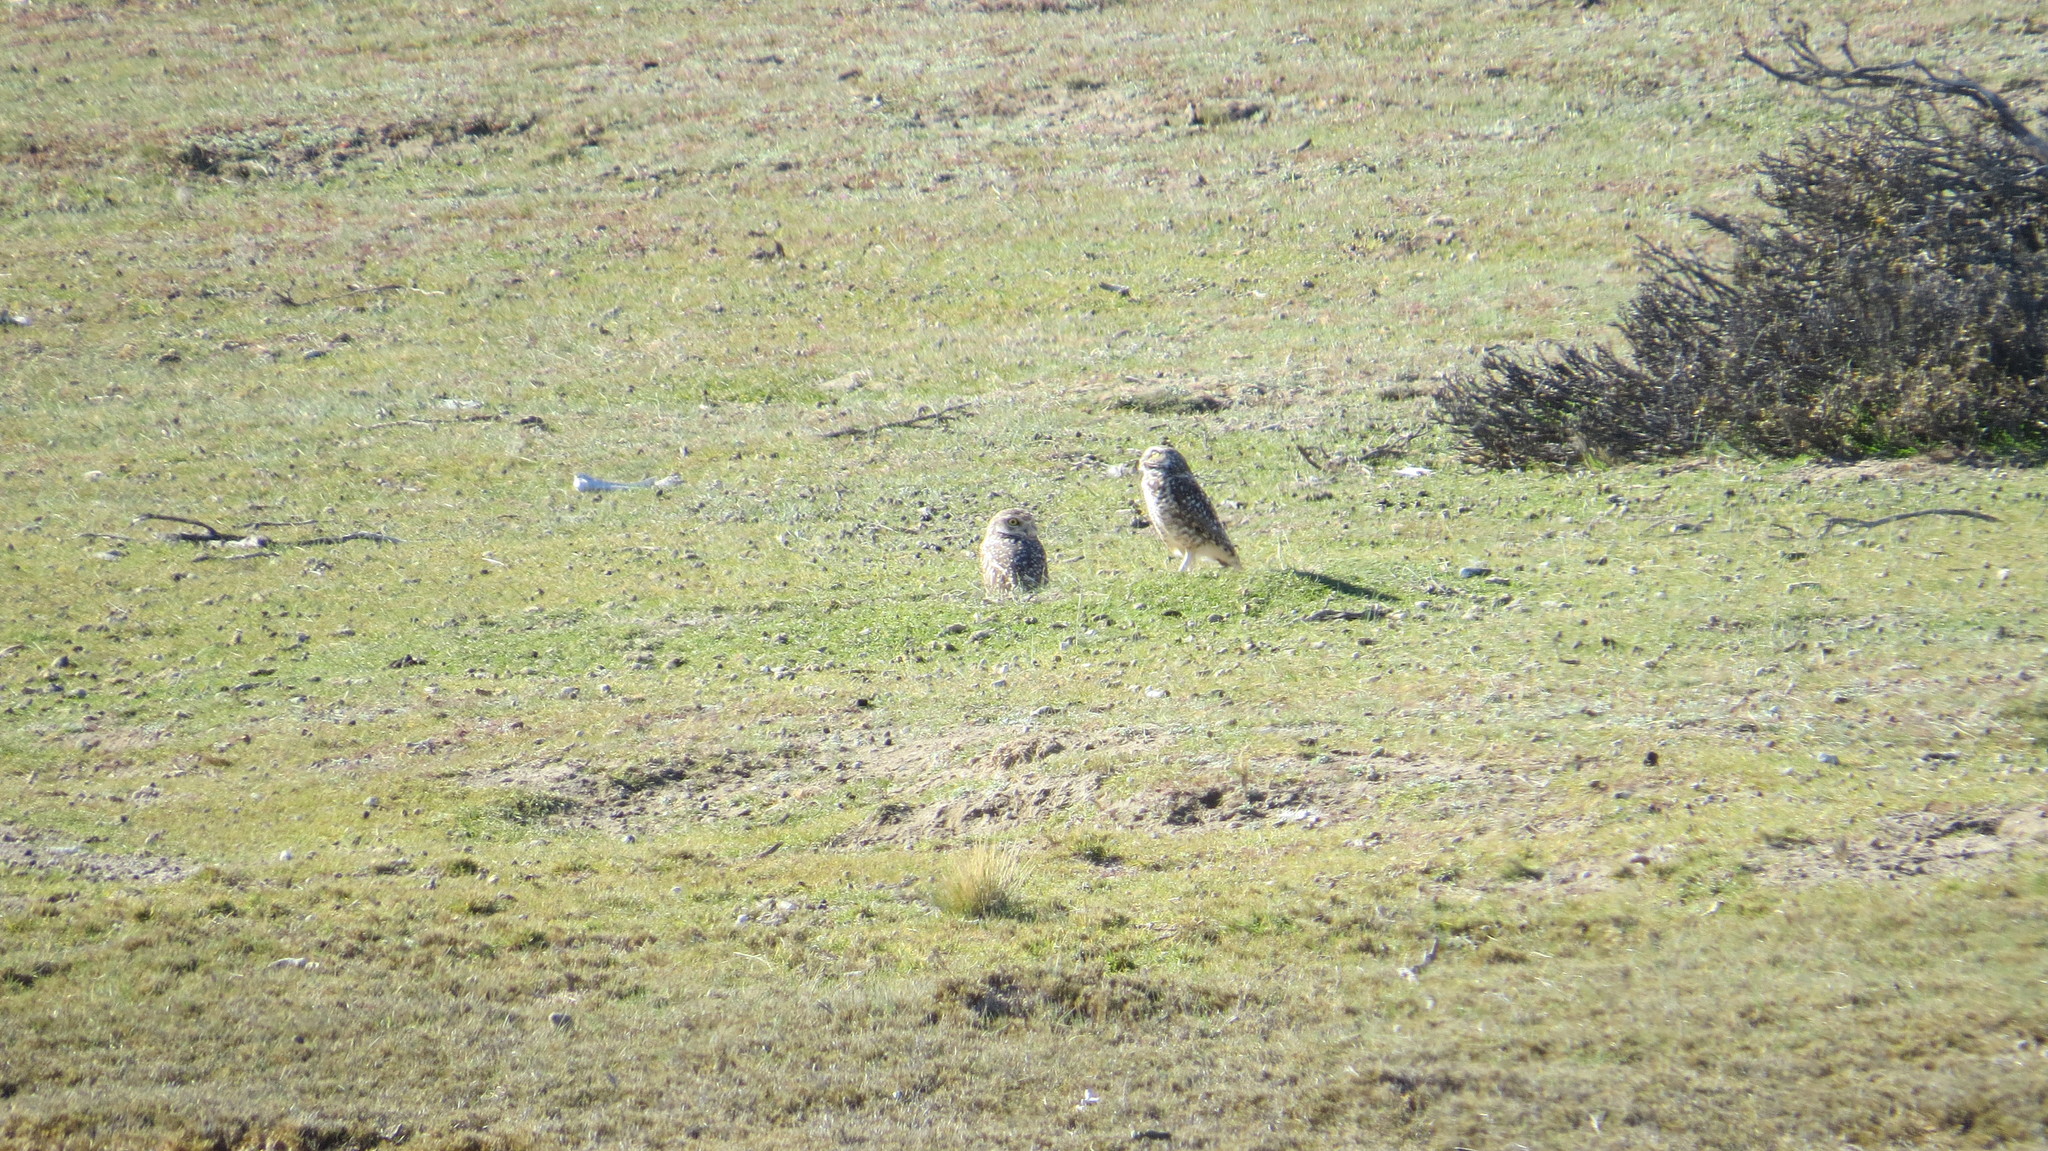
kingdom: Animalia
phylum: Chordata
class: Aves
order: Strigiformes
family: Strigidae
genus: Athene
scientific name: Athene cunicularia
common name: Burrowing owl
